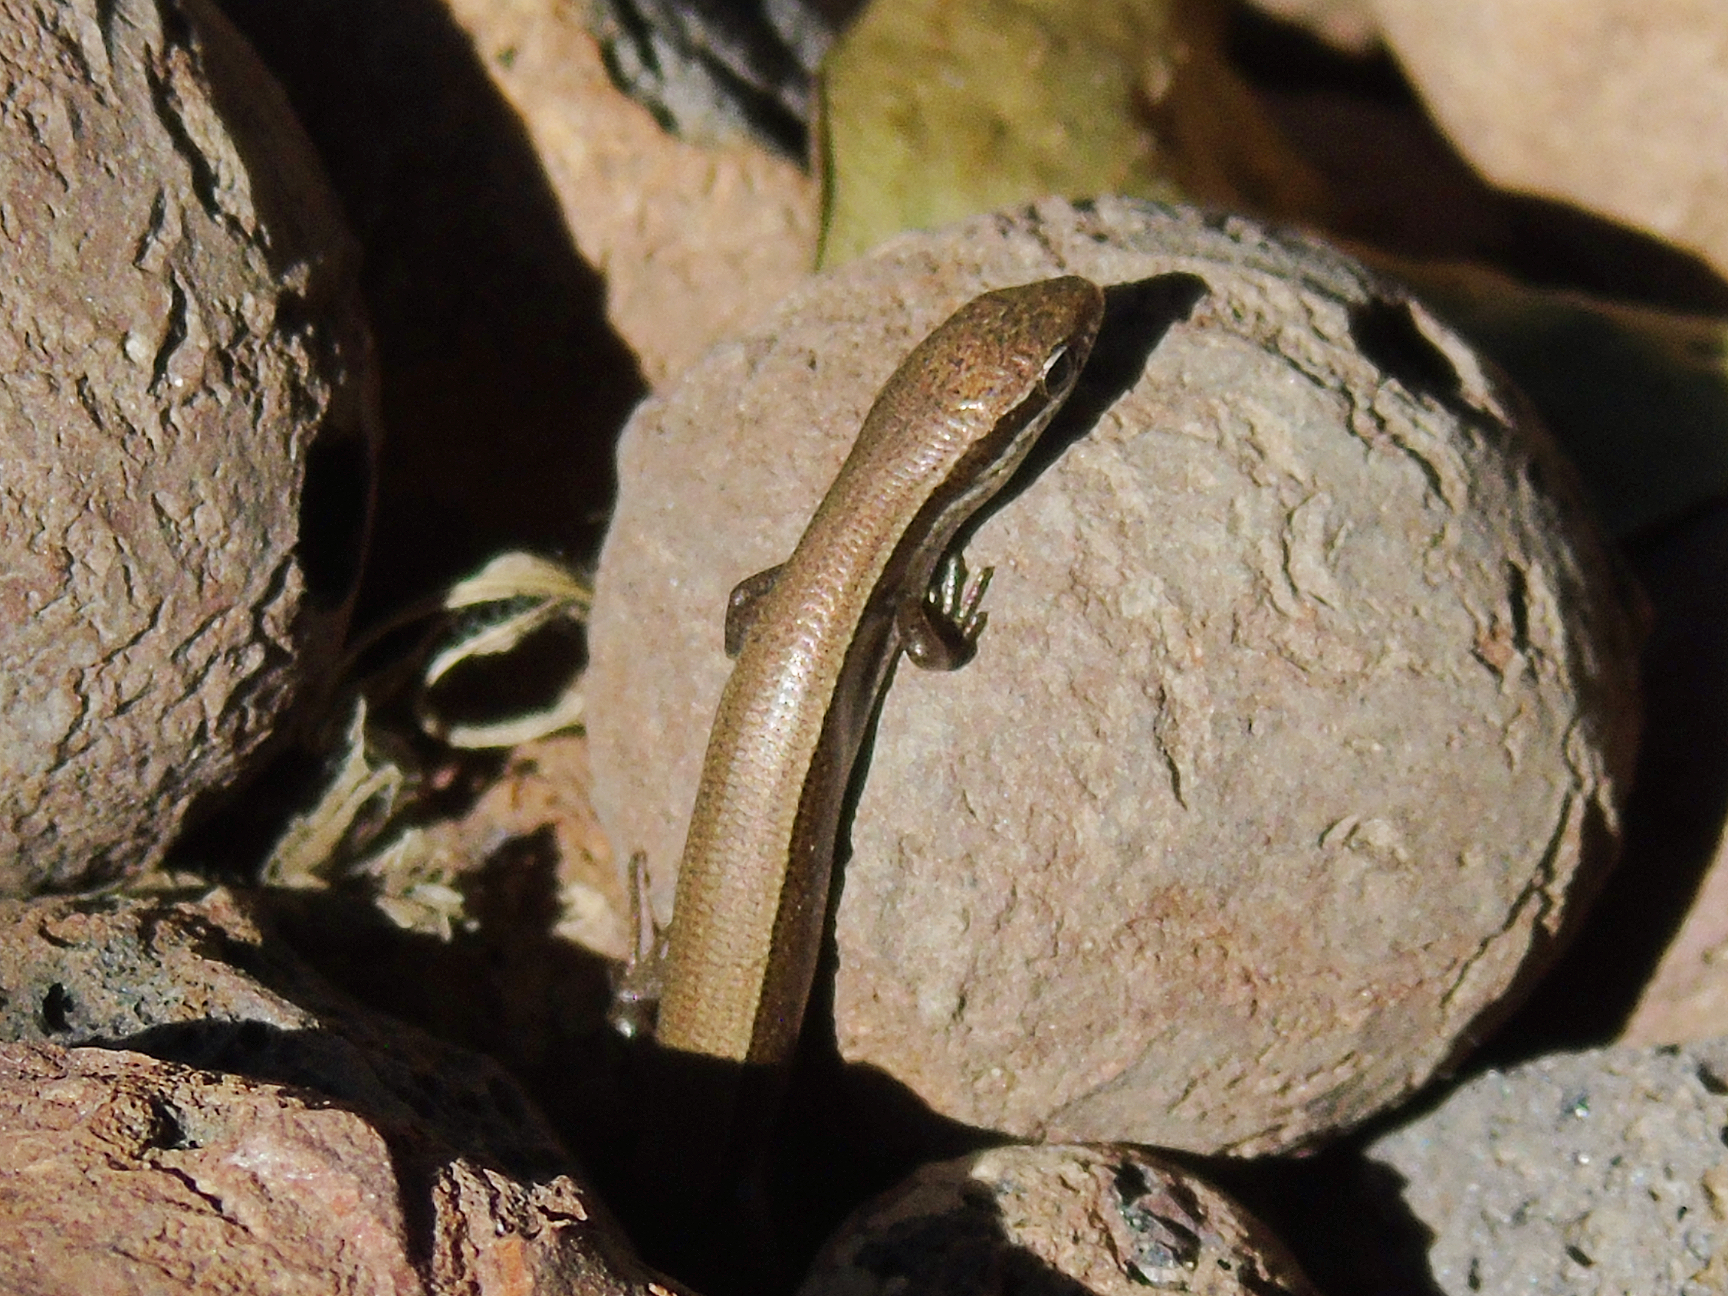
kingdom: Animalia
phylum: Chordata
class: Squamata
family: Scincidae
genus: Ablepharus
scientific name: Ablepharus deserti
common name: Desert lidless skink
